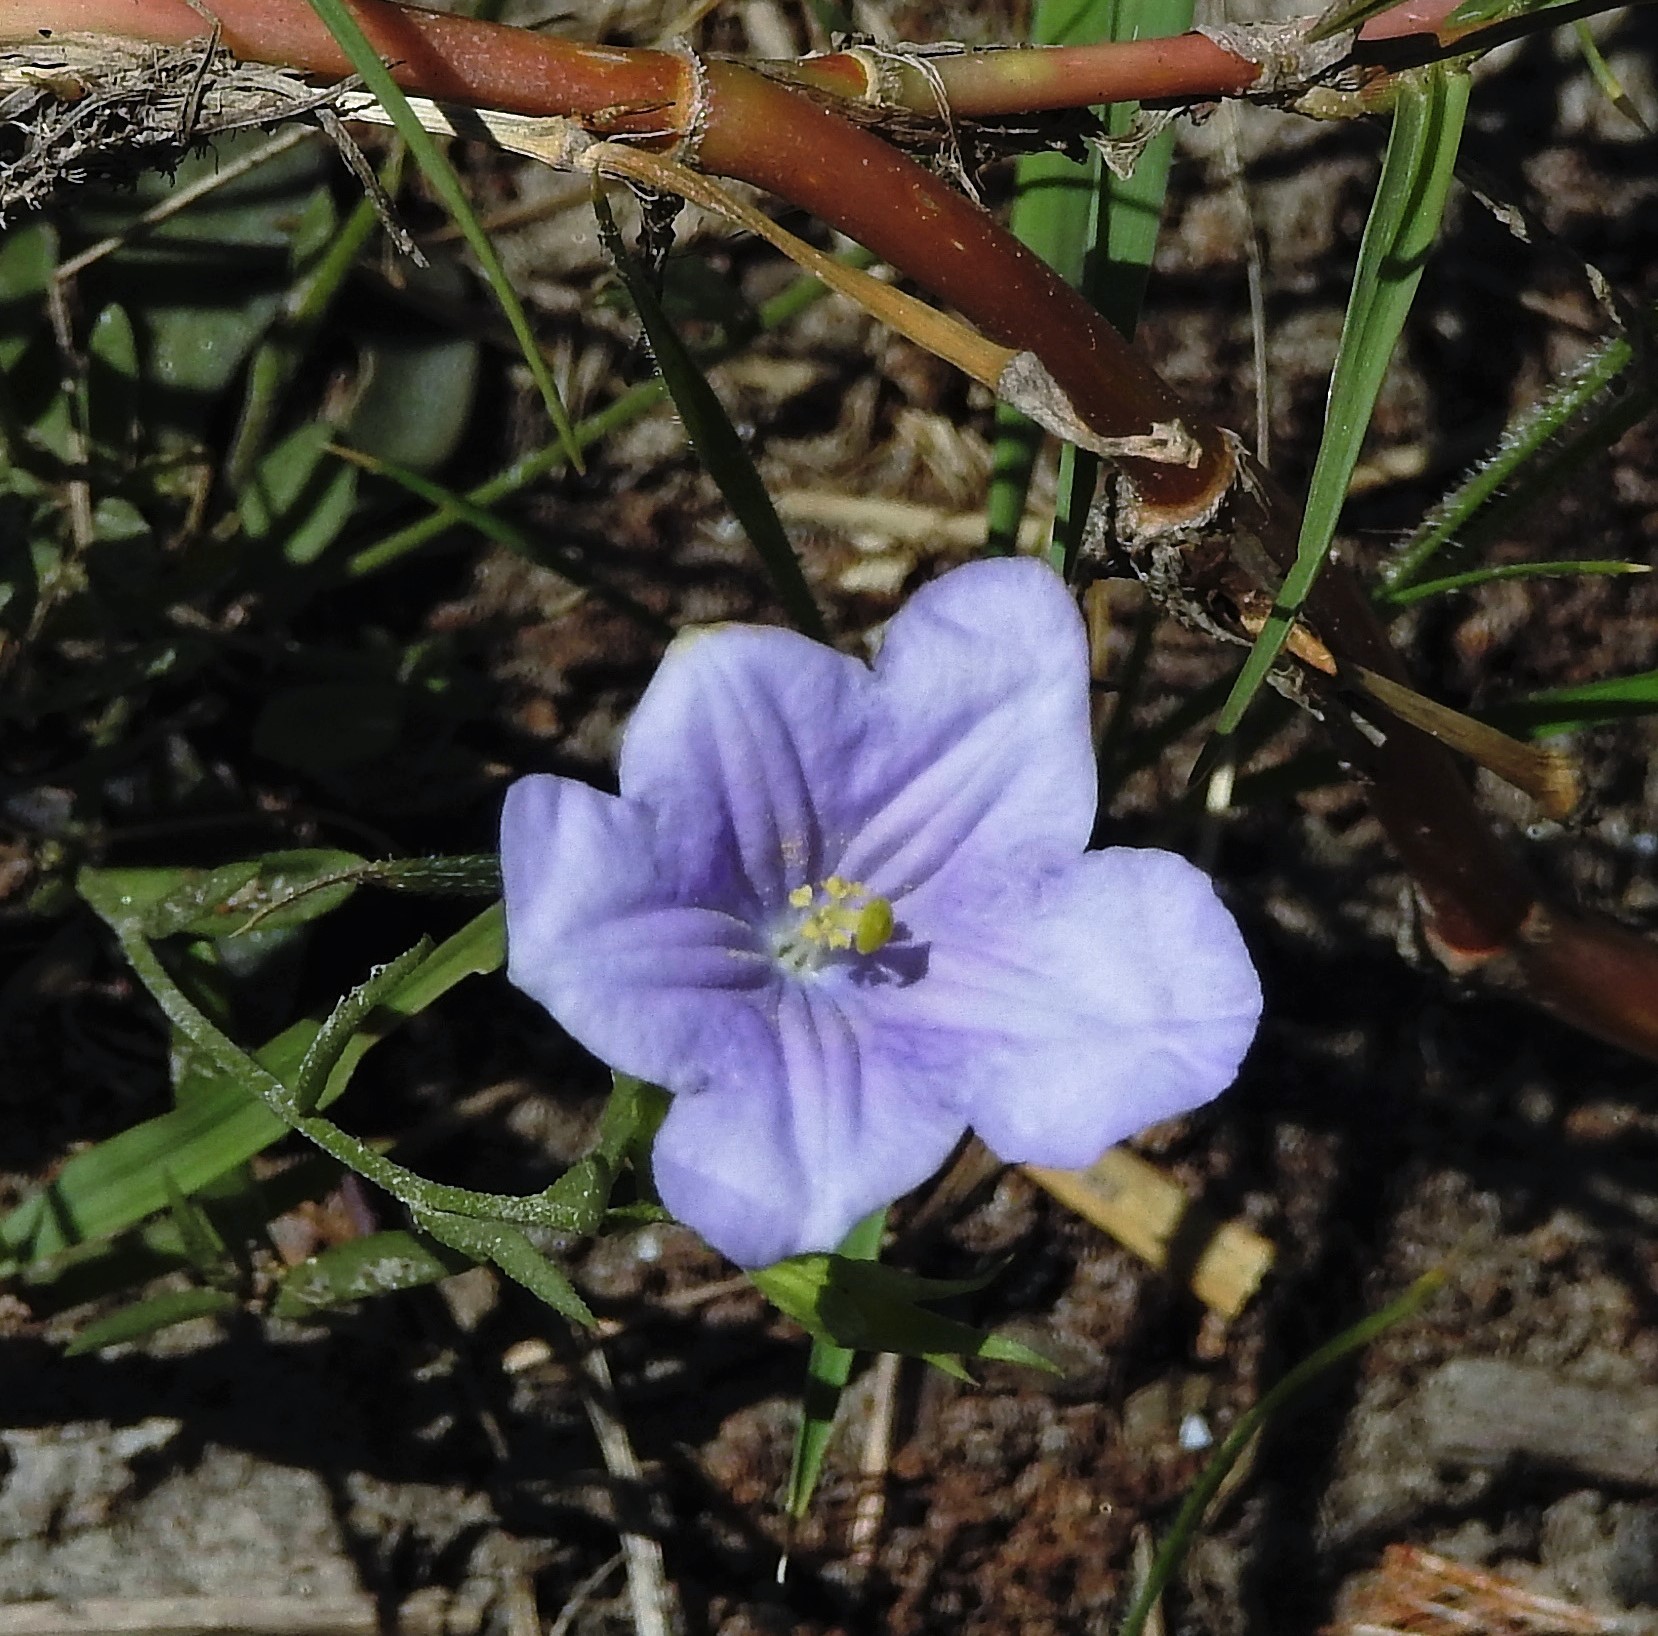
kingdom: Plantae
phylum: Tracheophyta
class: Magnoliopsida
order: Solanales
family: Solanaceae
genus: Nierembergia
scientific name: Nierembergia aristata
